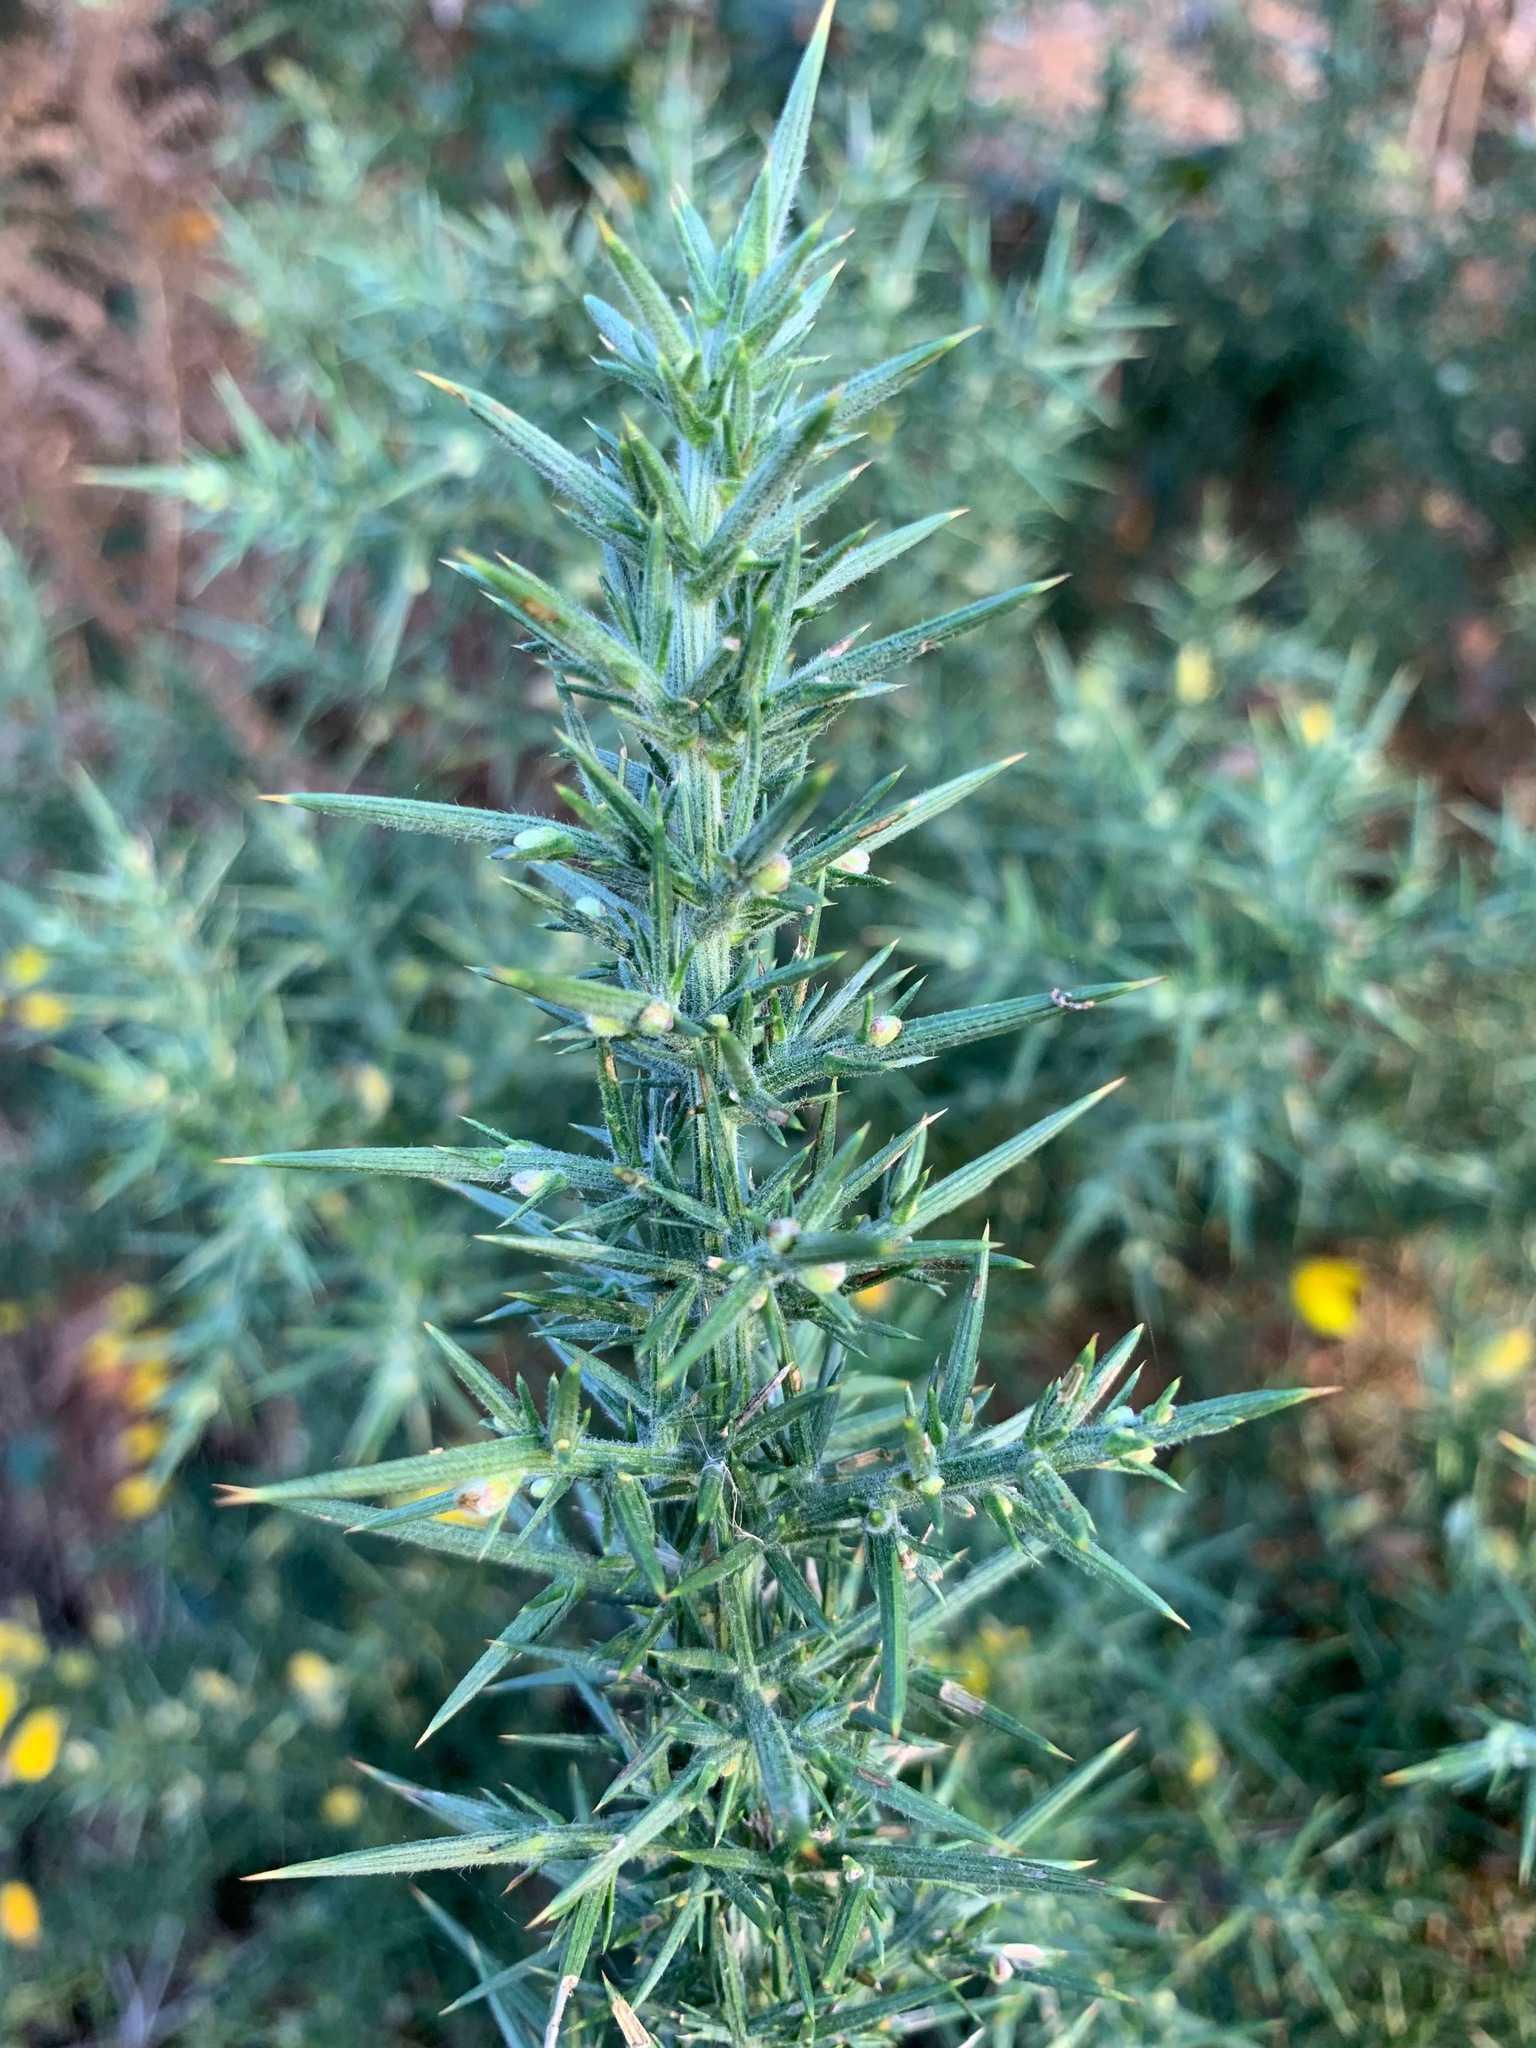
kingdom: Plantae
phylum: Tracheophyta
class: Magnoliopsida
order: Fabales
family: Fabaceae
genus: Ulex
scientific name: Ulex europaeus
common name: Common gorse
